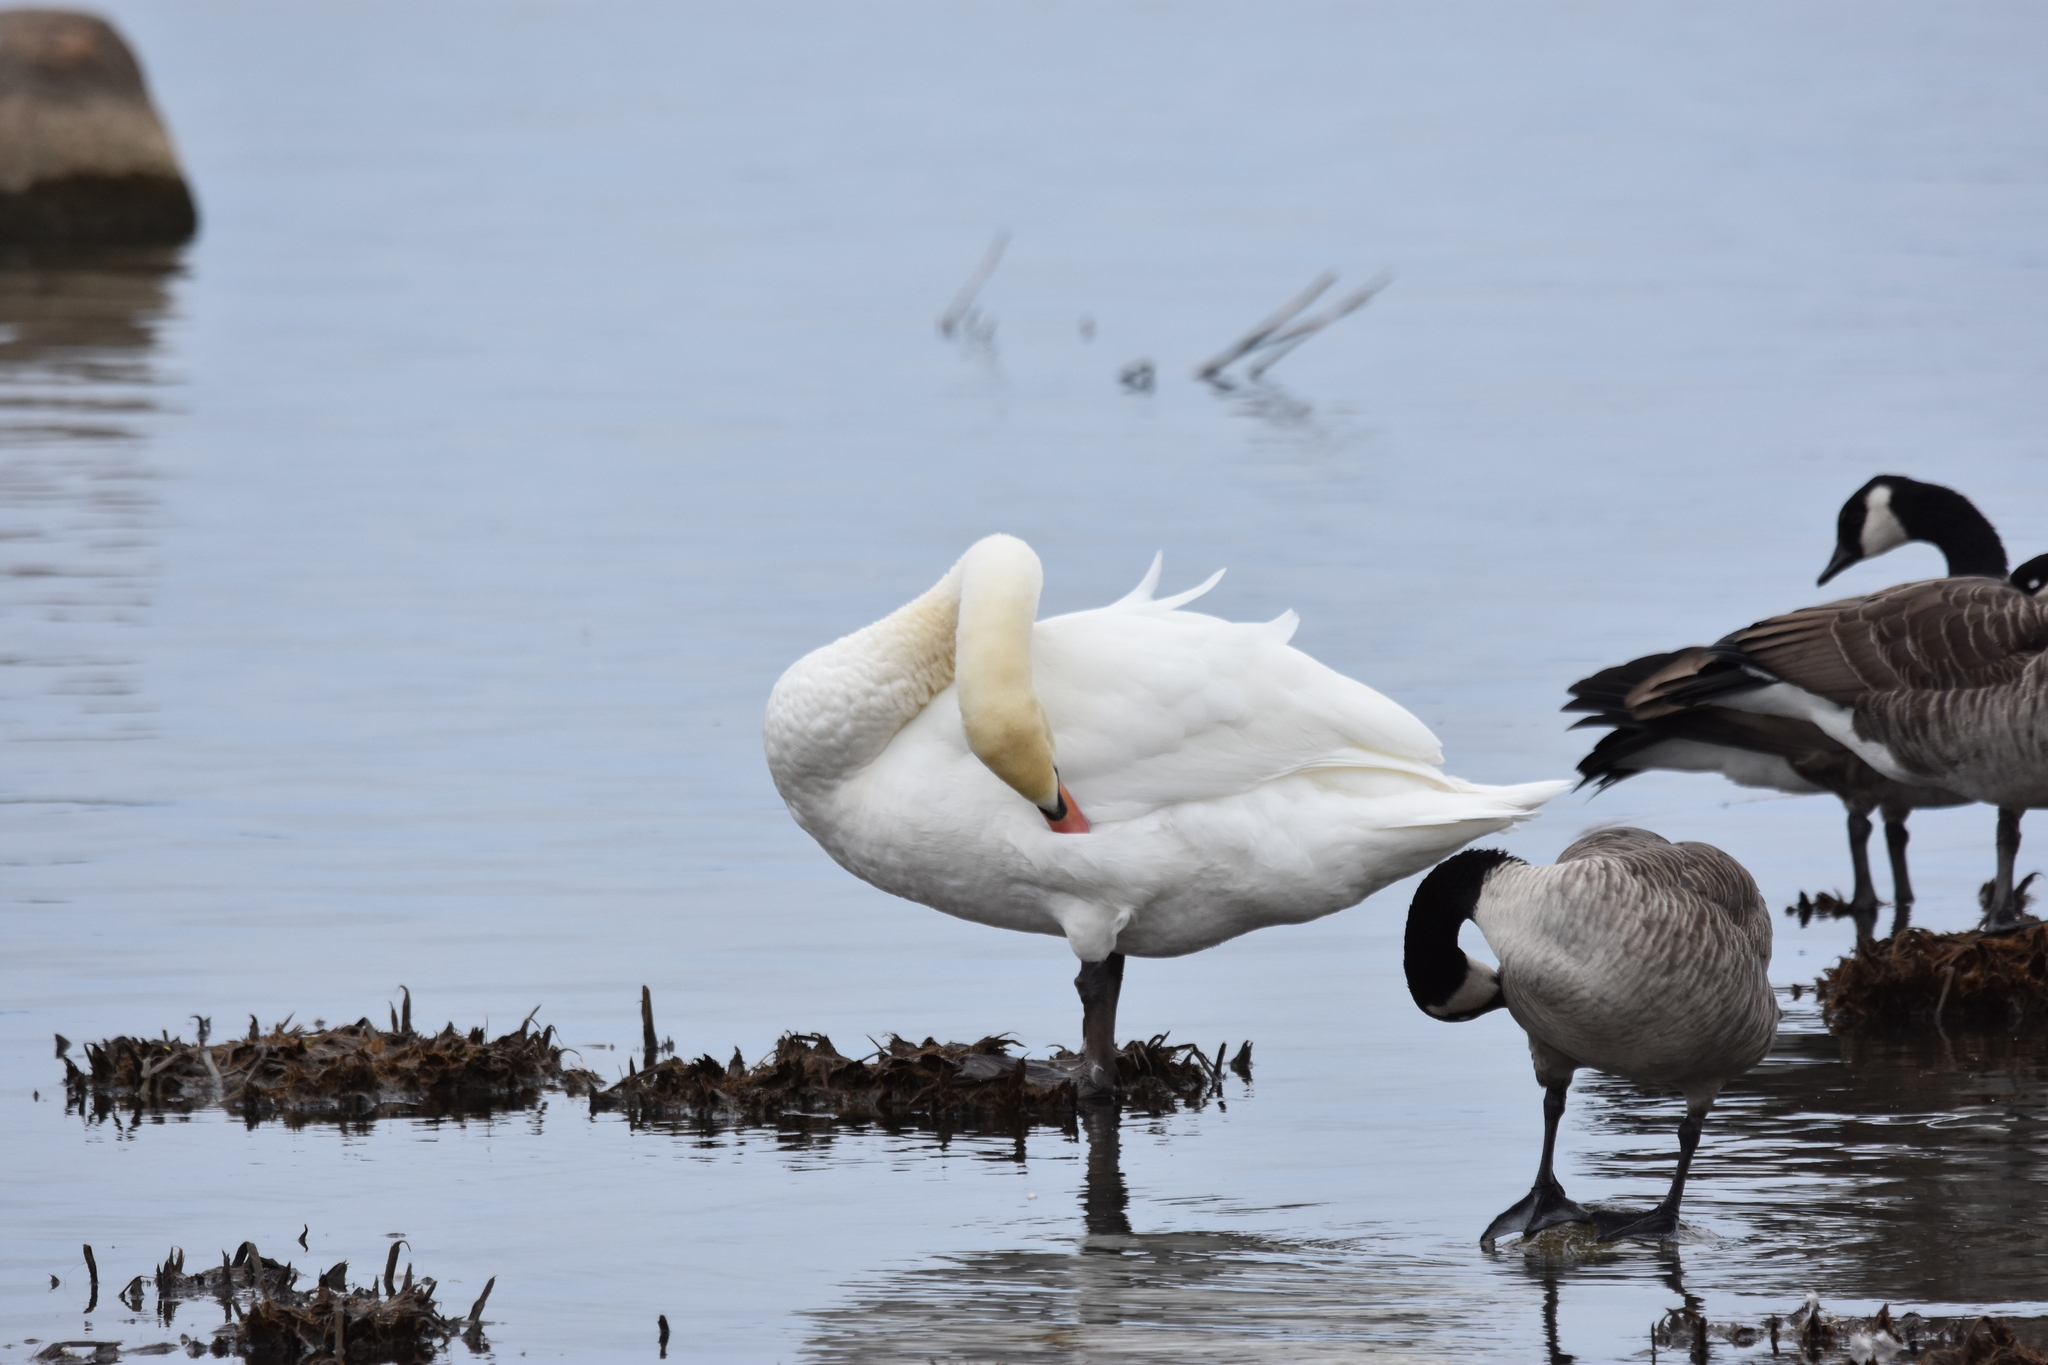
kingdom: Animalia
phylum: Chordata
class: Aves
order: Anseriformes
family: Anatidae
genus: Cygnus
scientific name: Cygnus olor
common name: Mute swan
